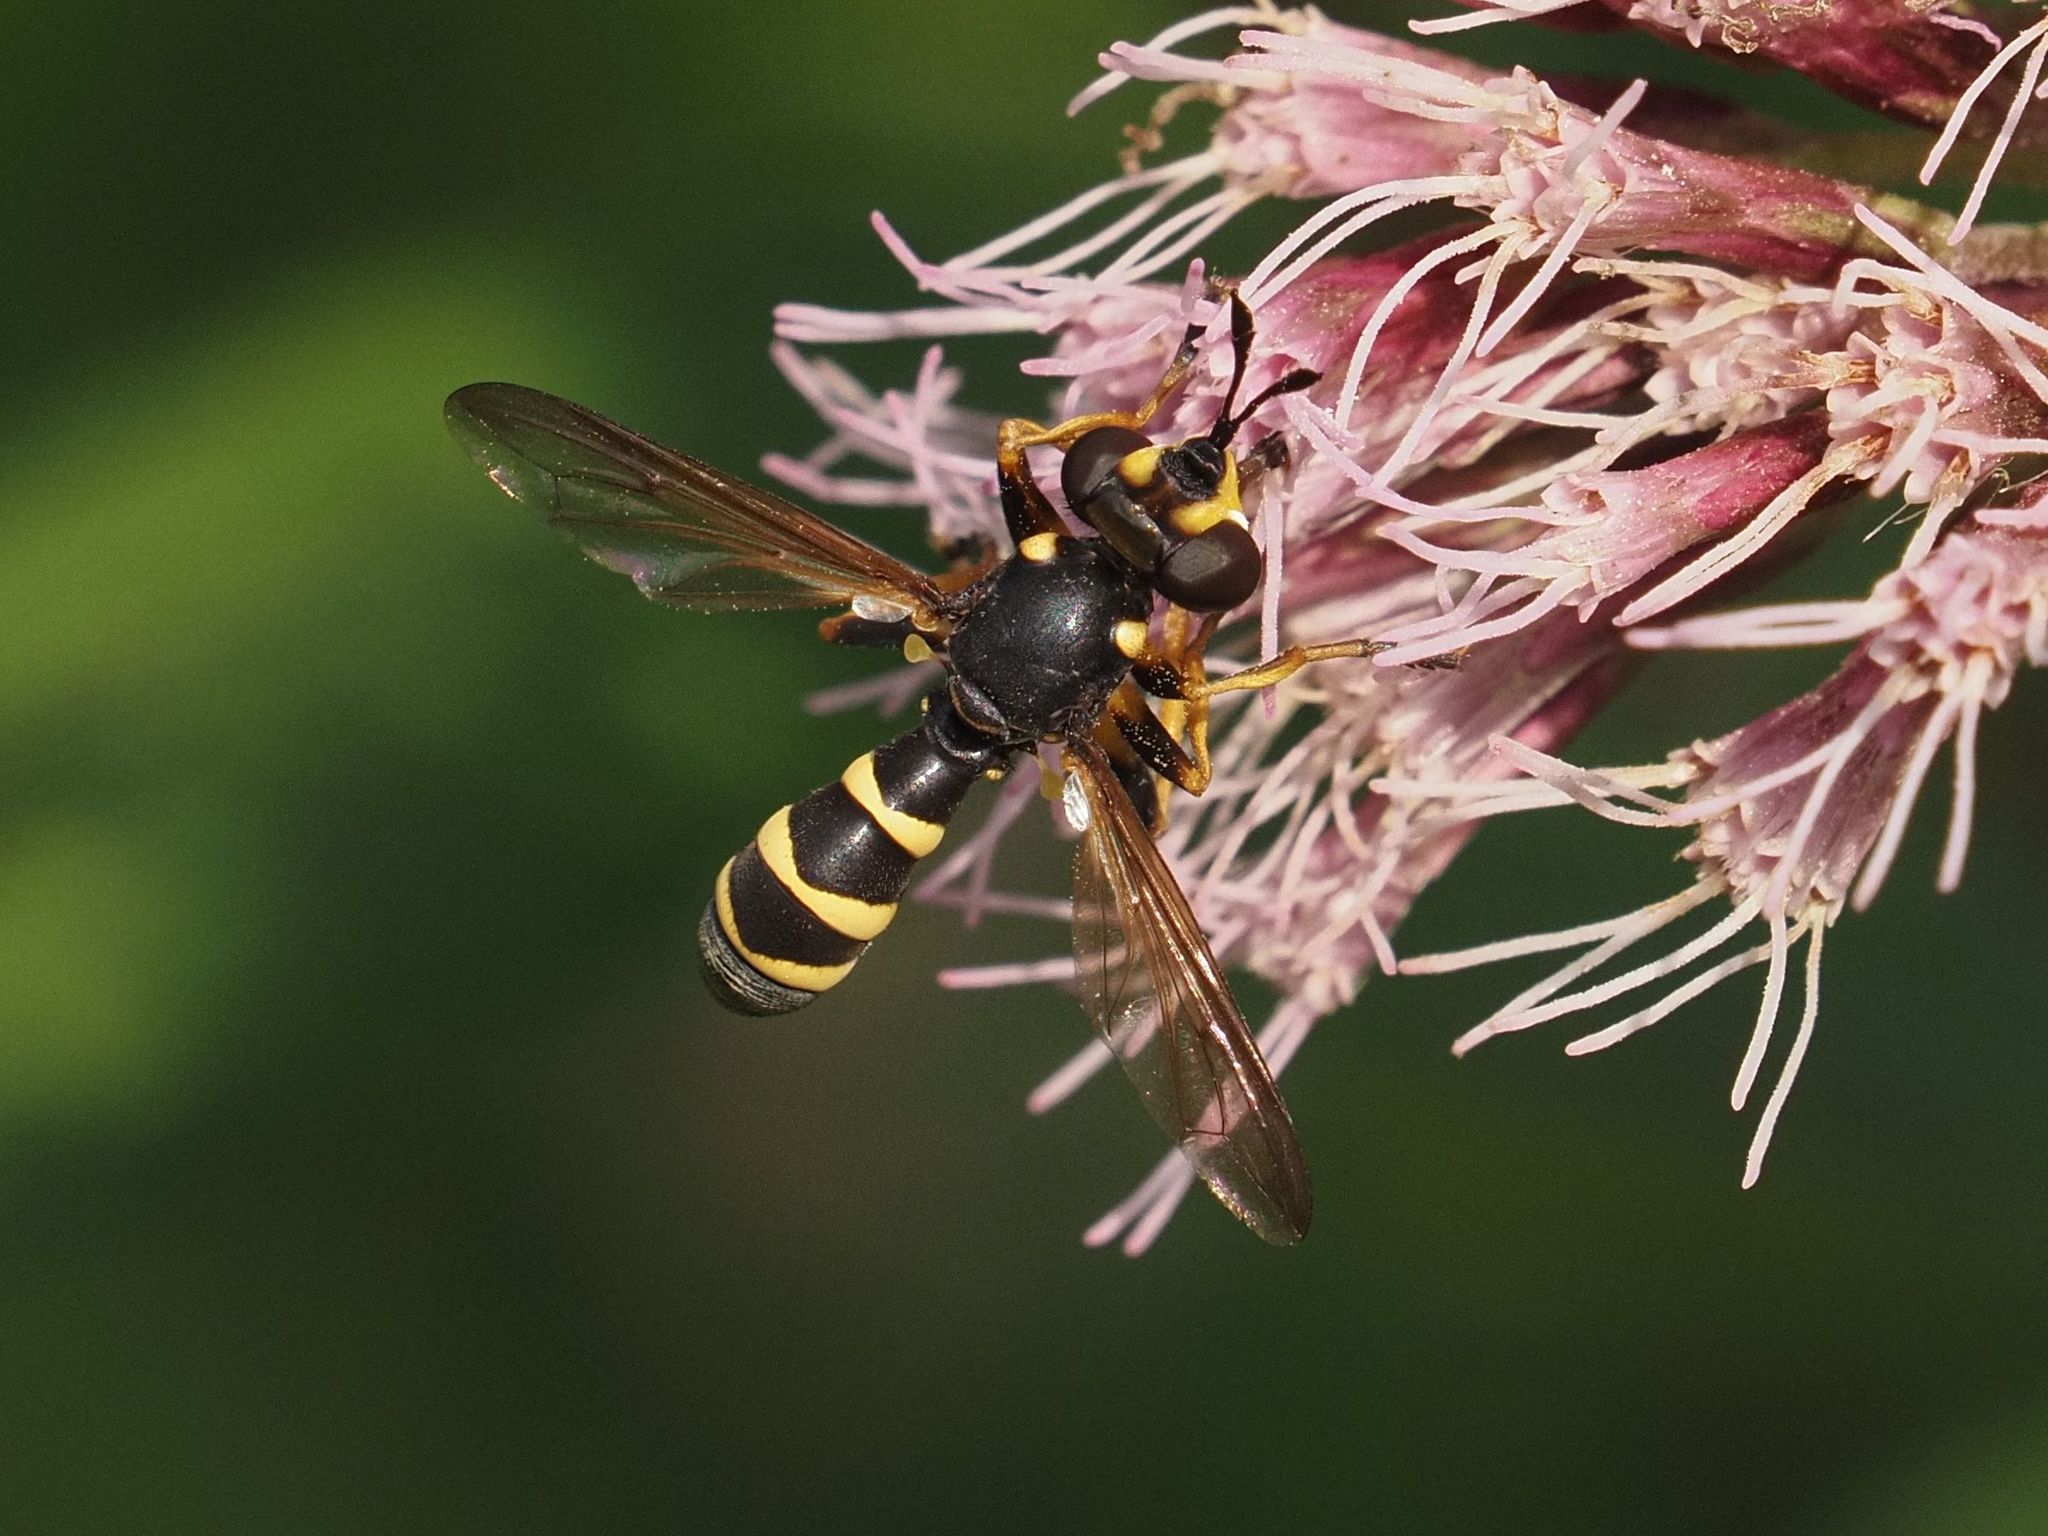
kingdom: Animalia
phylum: Arthropoda
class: Insecta
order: Diptera
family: Conopidae
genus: Conops
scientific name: Conops flavipes
